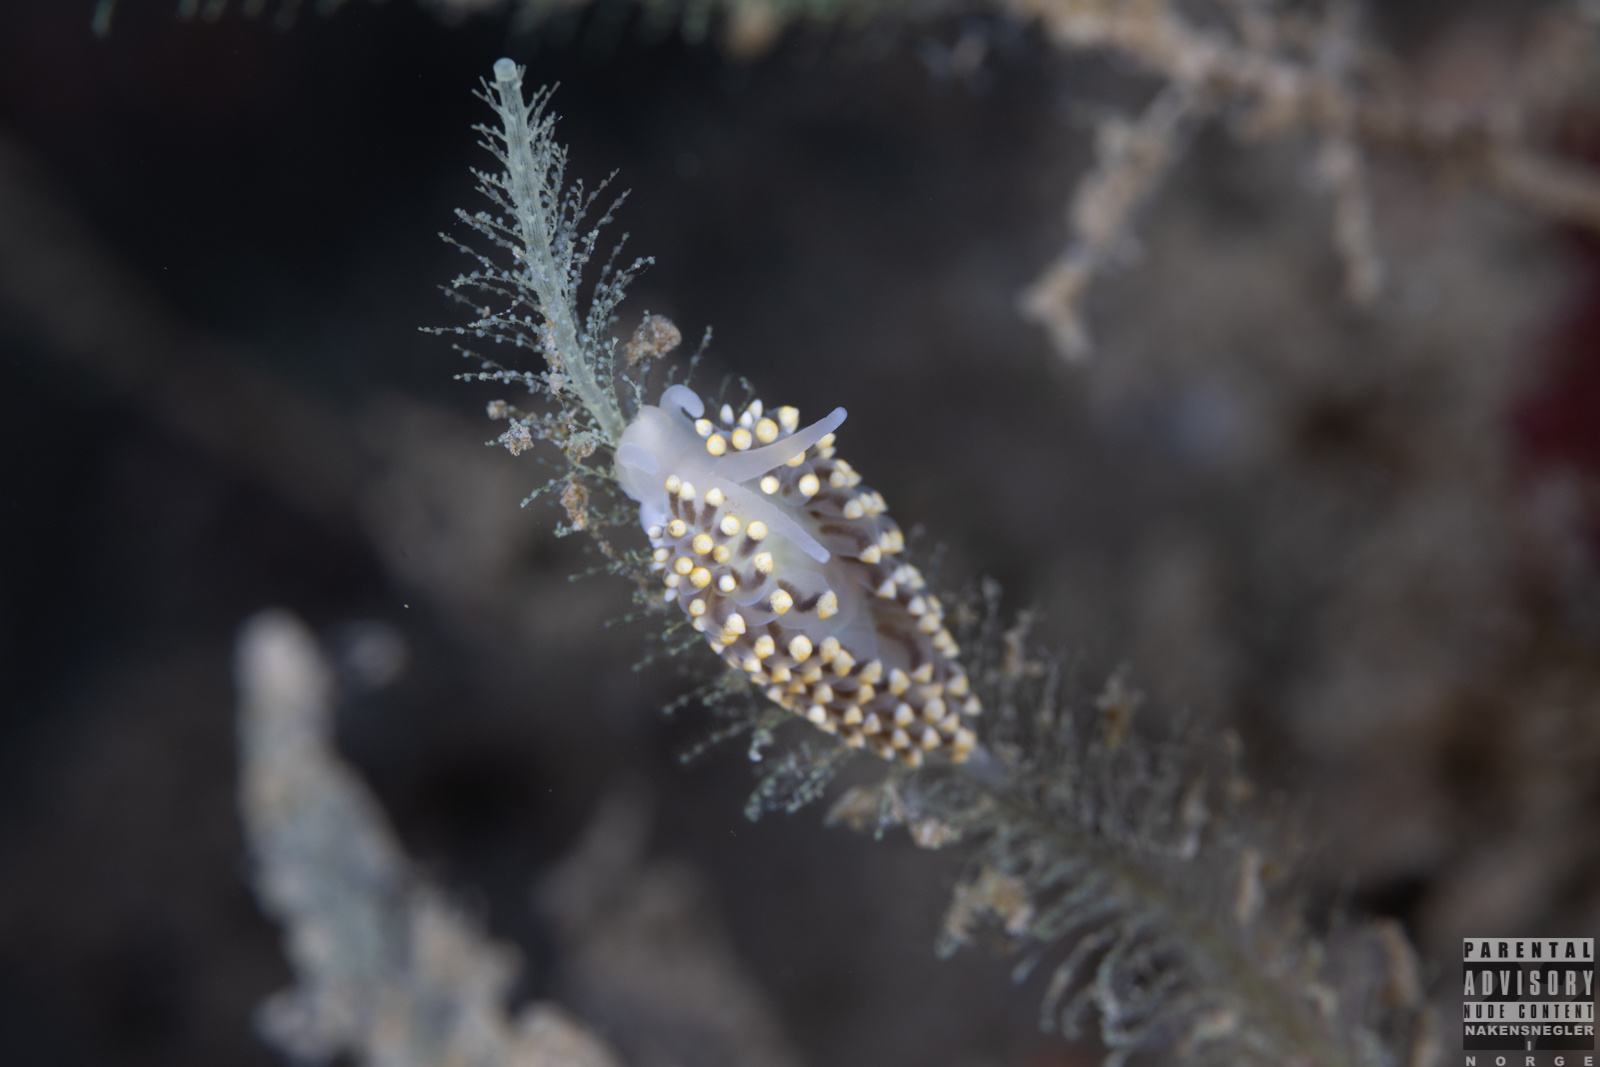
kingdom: Animalia
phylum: Mollusca
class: Gastropoda
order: Nudibranchia
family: Eubranchidae
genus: Eubranchus
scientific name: Eubranchus tricolor
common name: Painted balloon aeolis
